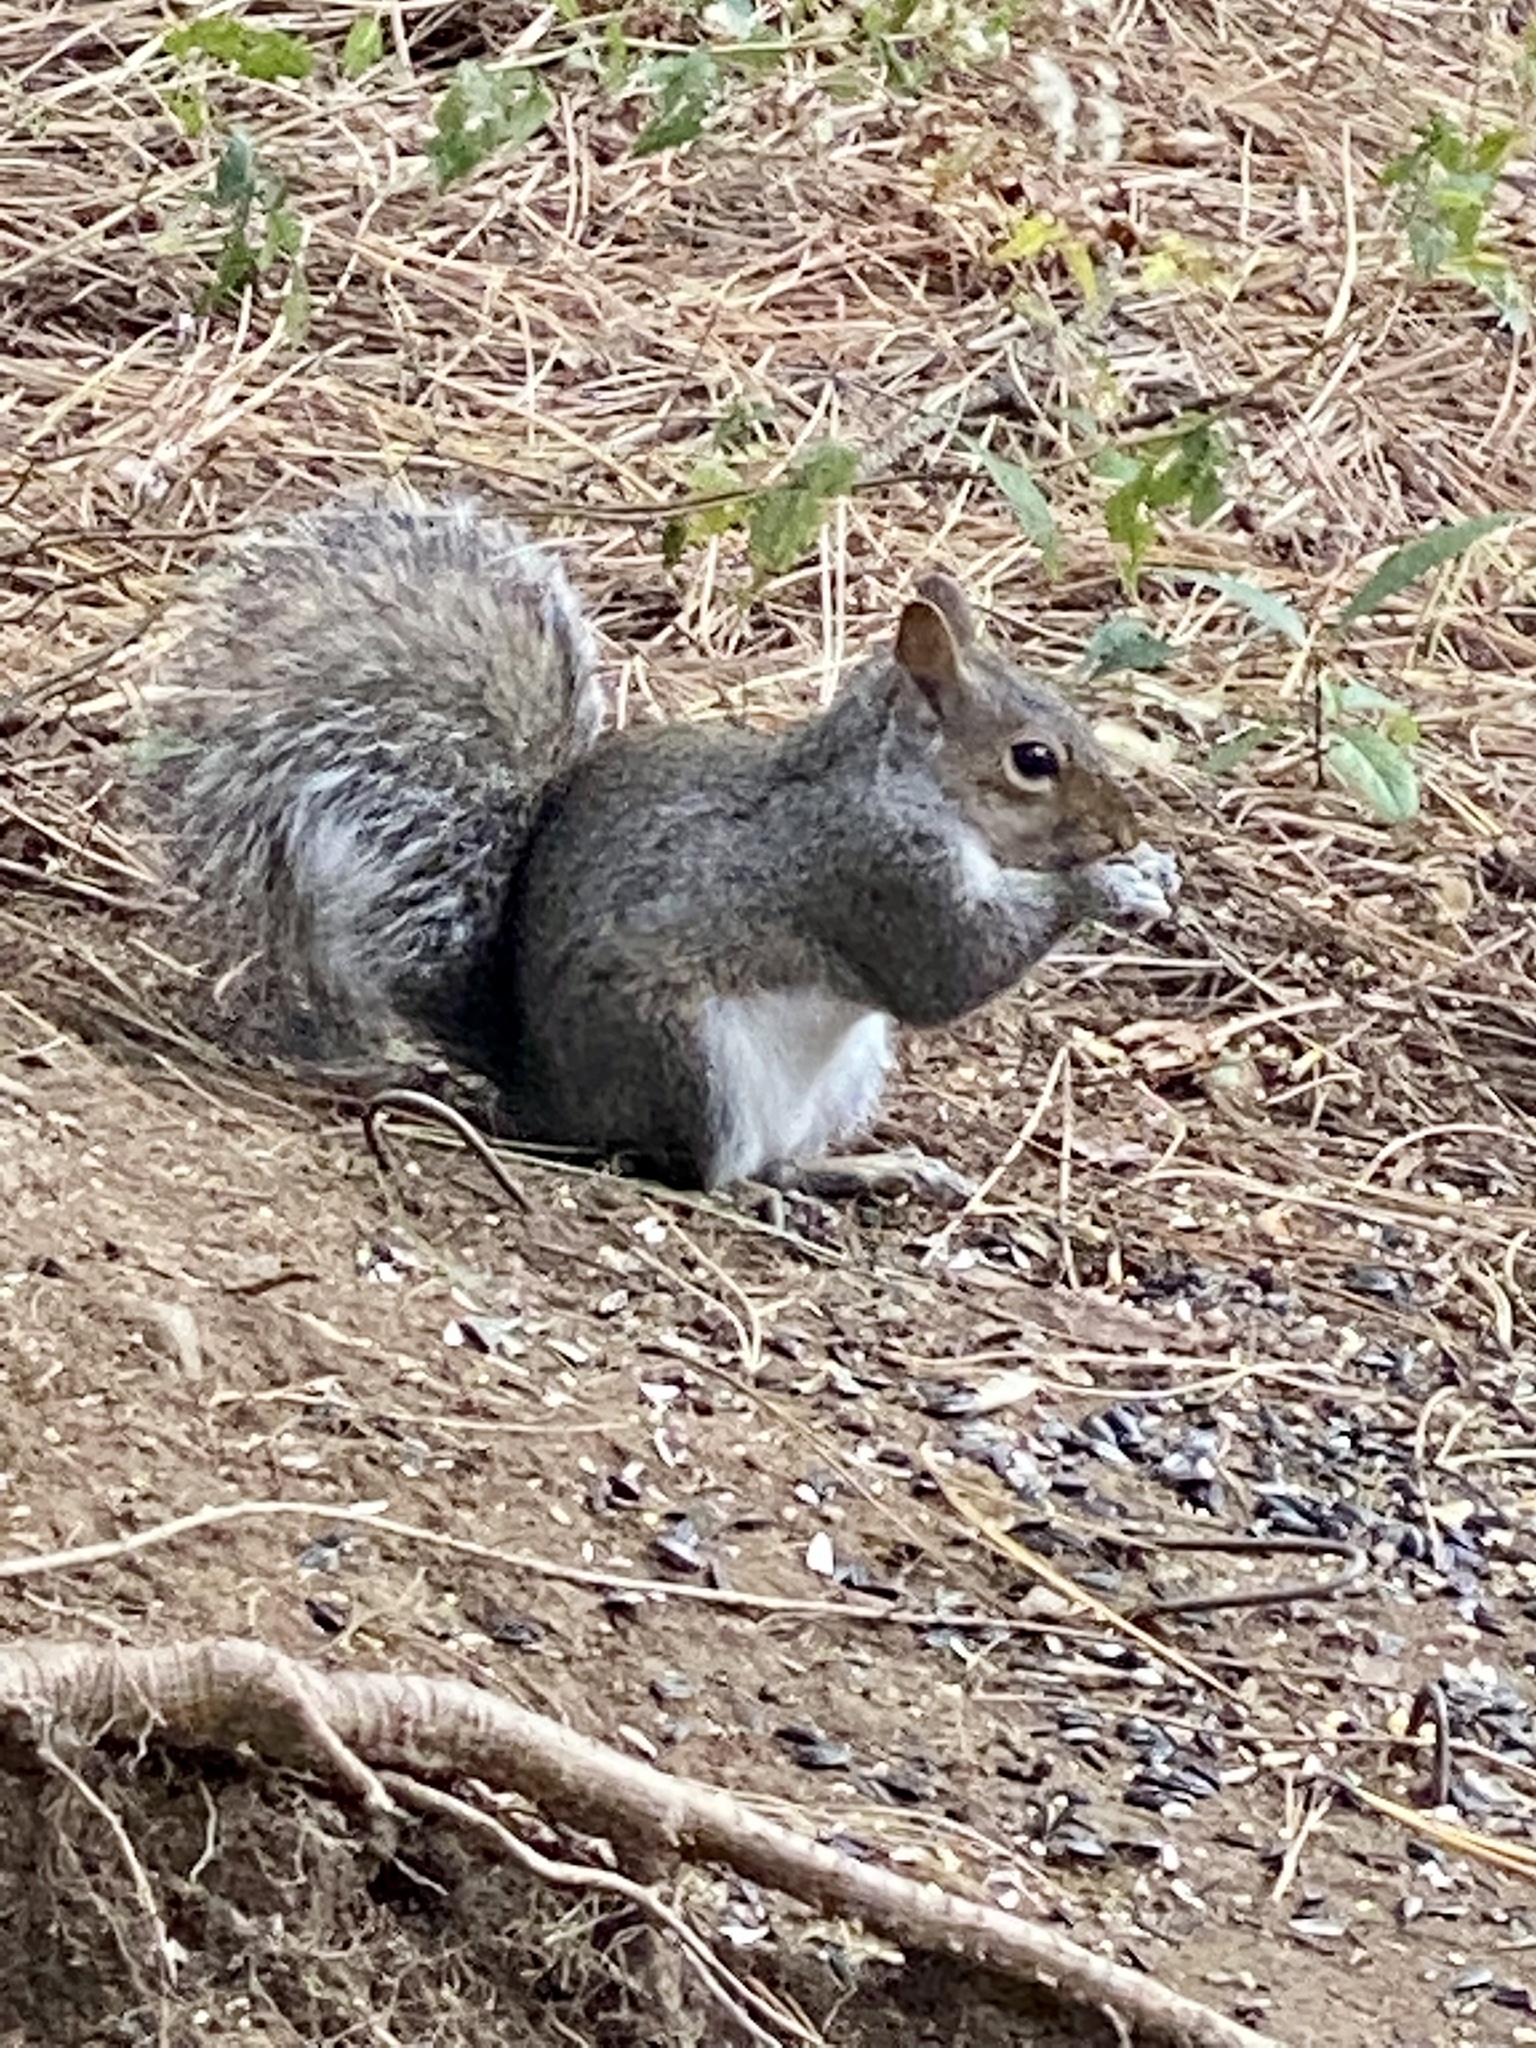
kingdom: Animalia
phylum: Chordata
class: Mammalia
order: Rodentia
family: Sciuridae
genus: Sciurus
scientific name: Sciurus carolinensis
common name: Eastern gray squirrel
